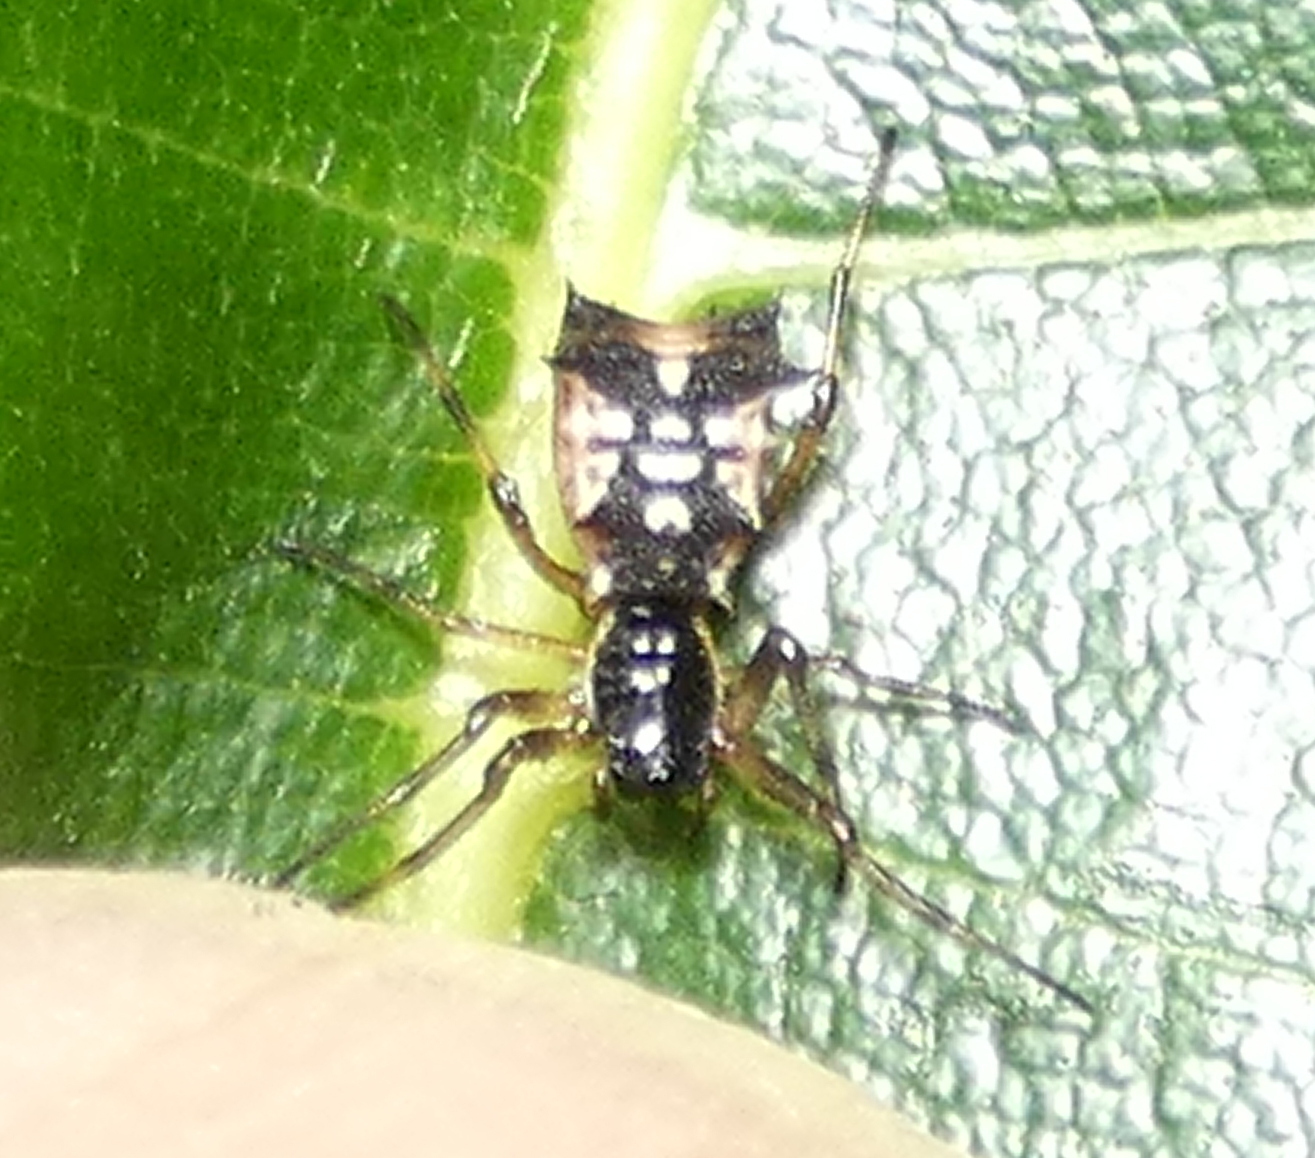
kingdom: Animalia
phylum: Arthropoda
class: Arachnida
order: Araneae
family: Araneidae
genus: Micrathena
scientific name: Micrathena picta
